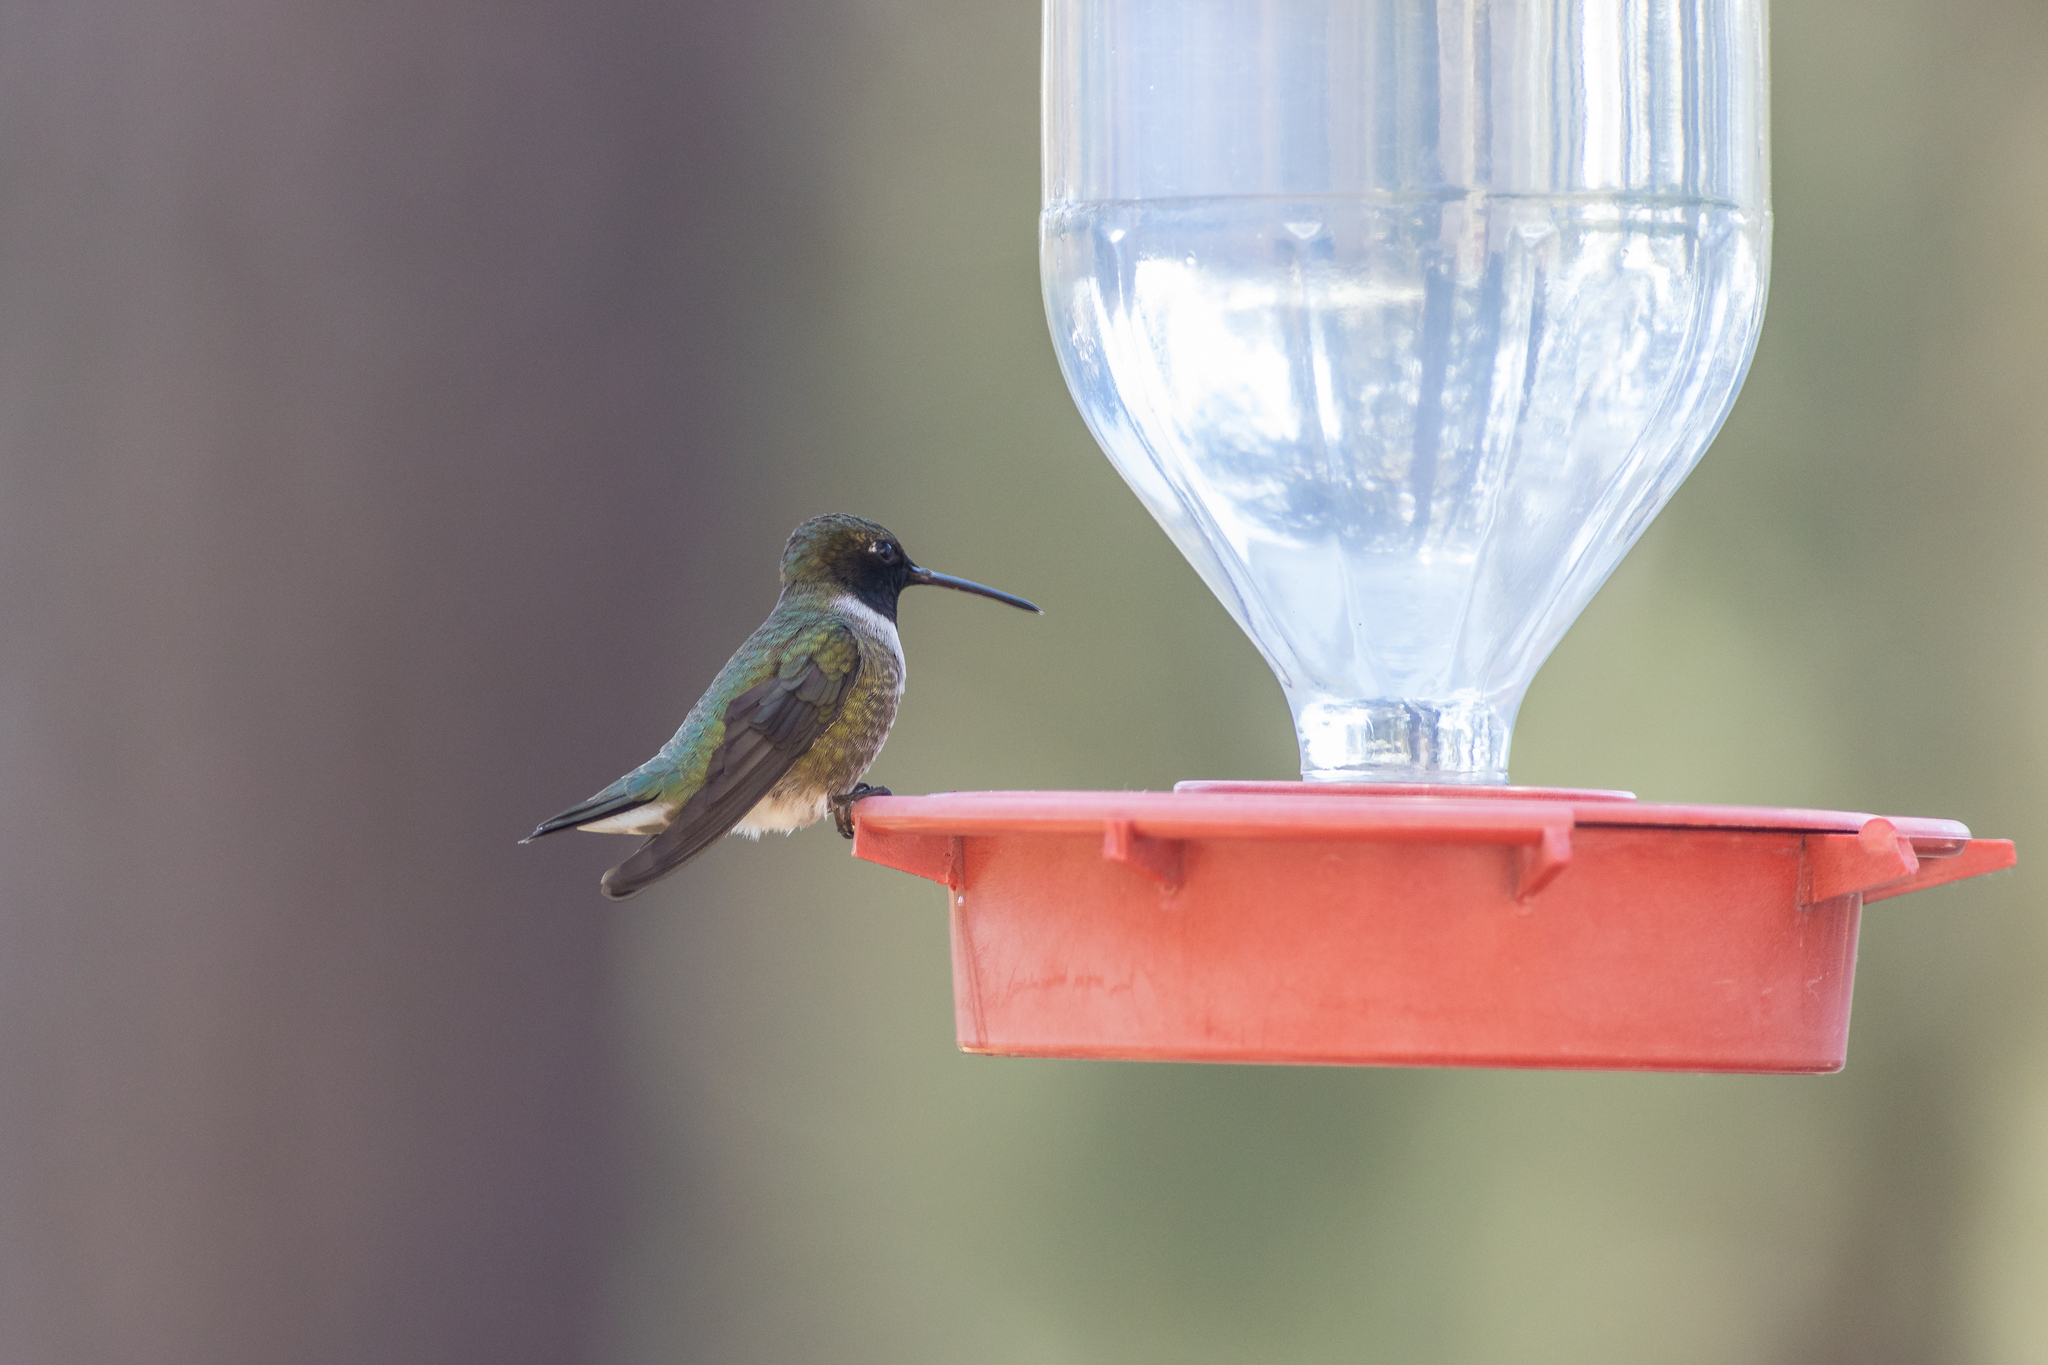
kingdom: Animalia
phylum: Chordata
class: Aves
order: Apodiformes
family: Trochilidae
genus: Archilochus
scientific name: Archilochus alexandri
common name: Black-chinned hummingbird
